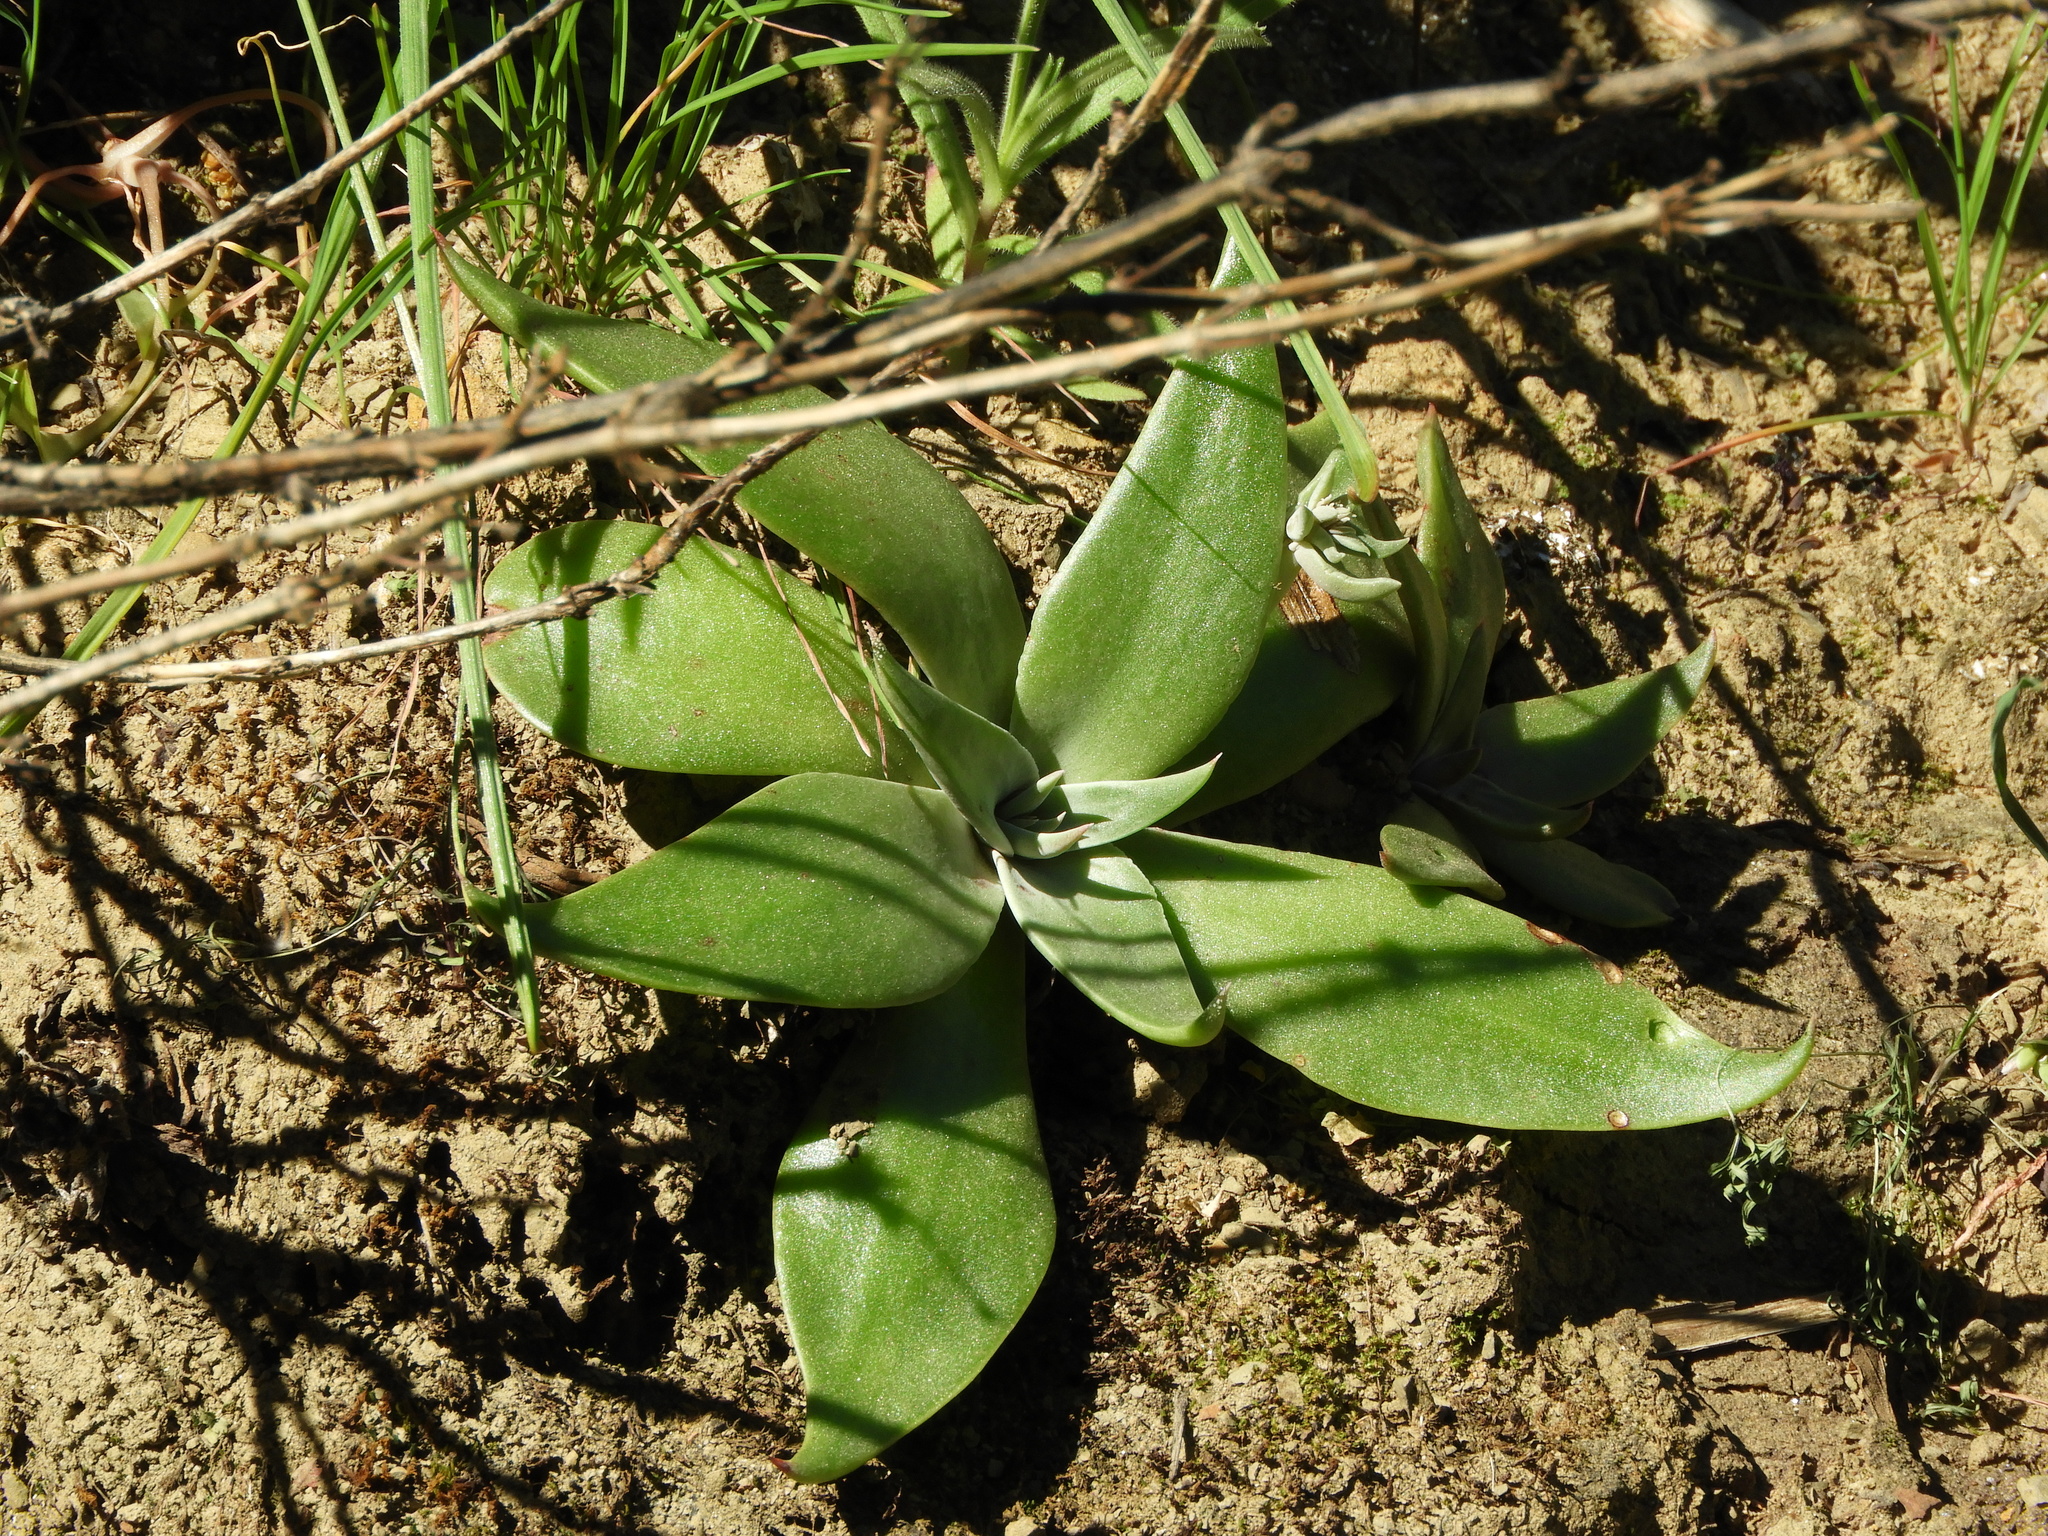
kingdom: Plantae
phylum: Tracheophyta
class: Magnoliopsida
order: Saxifragales
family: Crassulaceae
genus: Dudleya
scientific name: Dudleya cymosa
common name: Canyon dudleya
